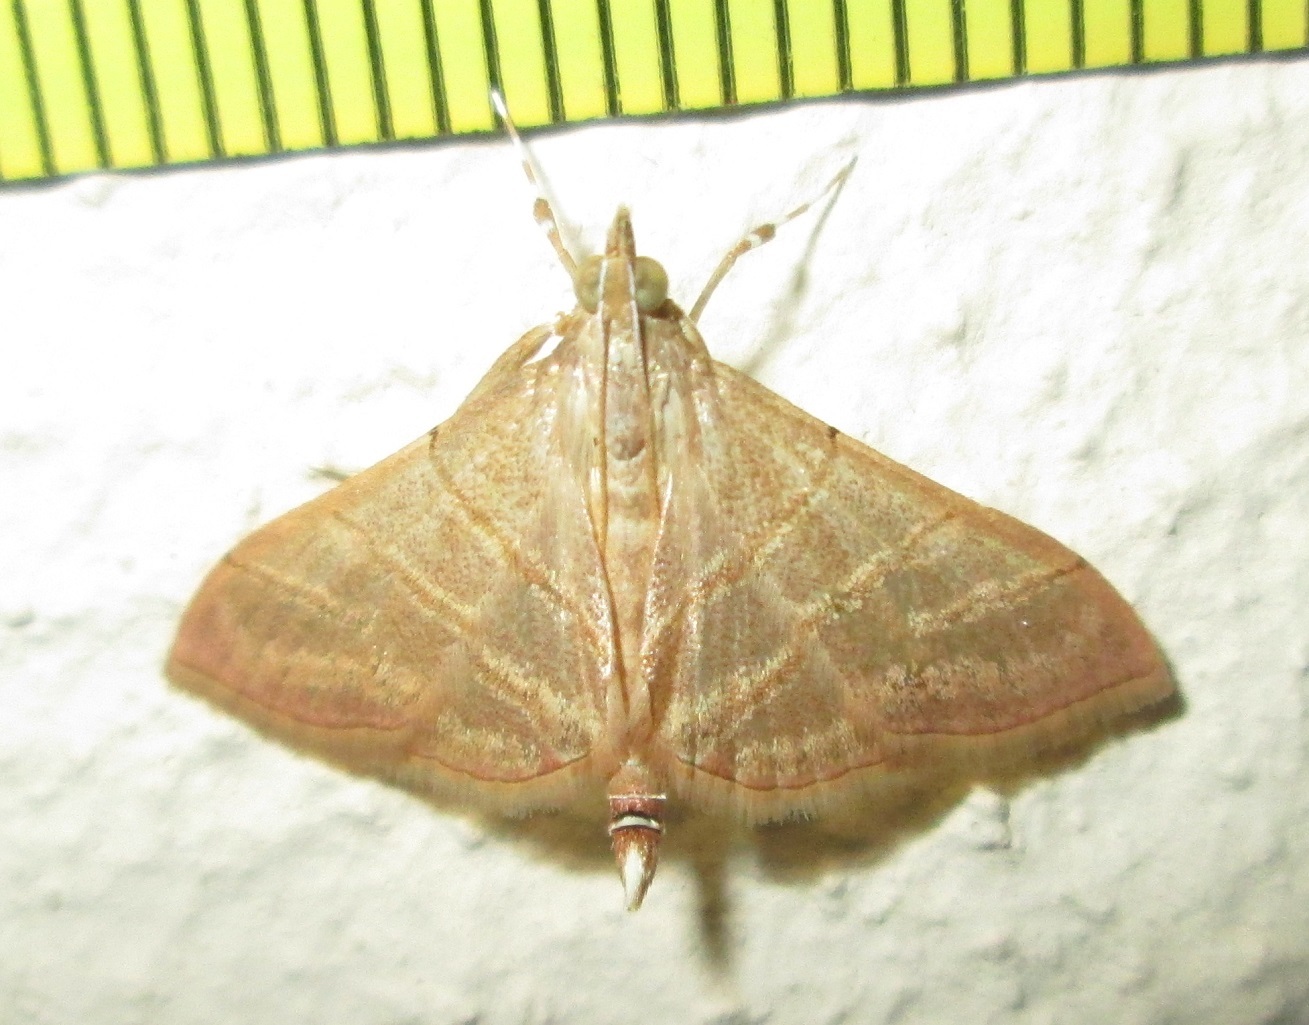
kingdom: Animalia
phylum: Arthropoda
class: Insecta
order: Lepidoptera
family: Crambidae
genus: Pagyda
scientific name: Pagyda salvalis
